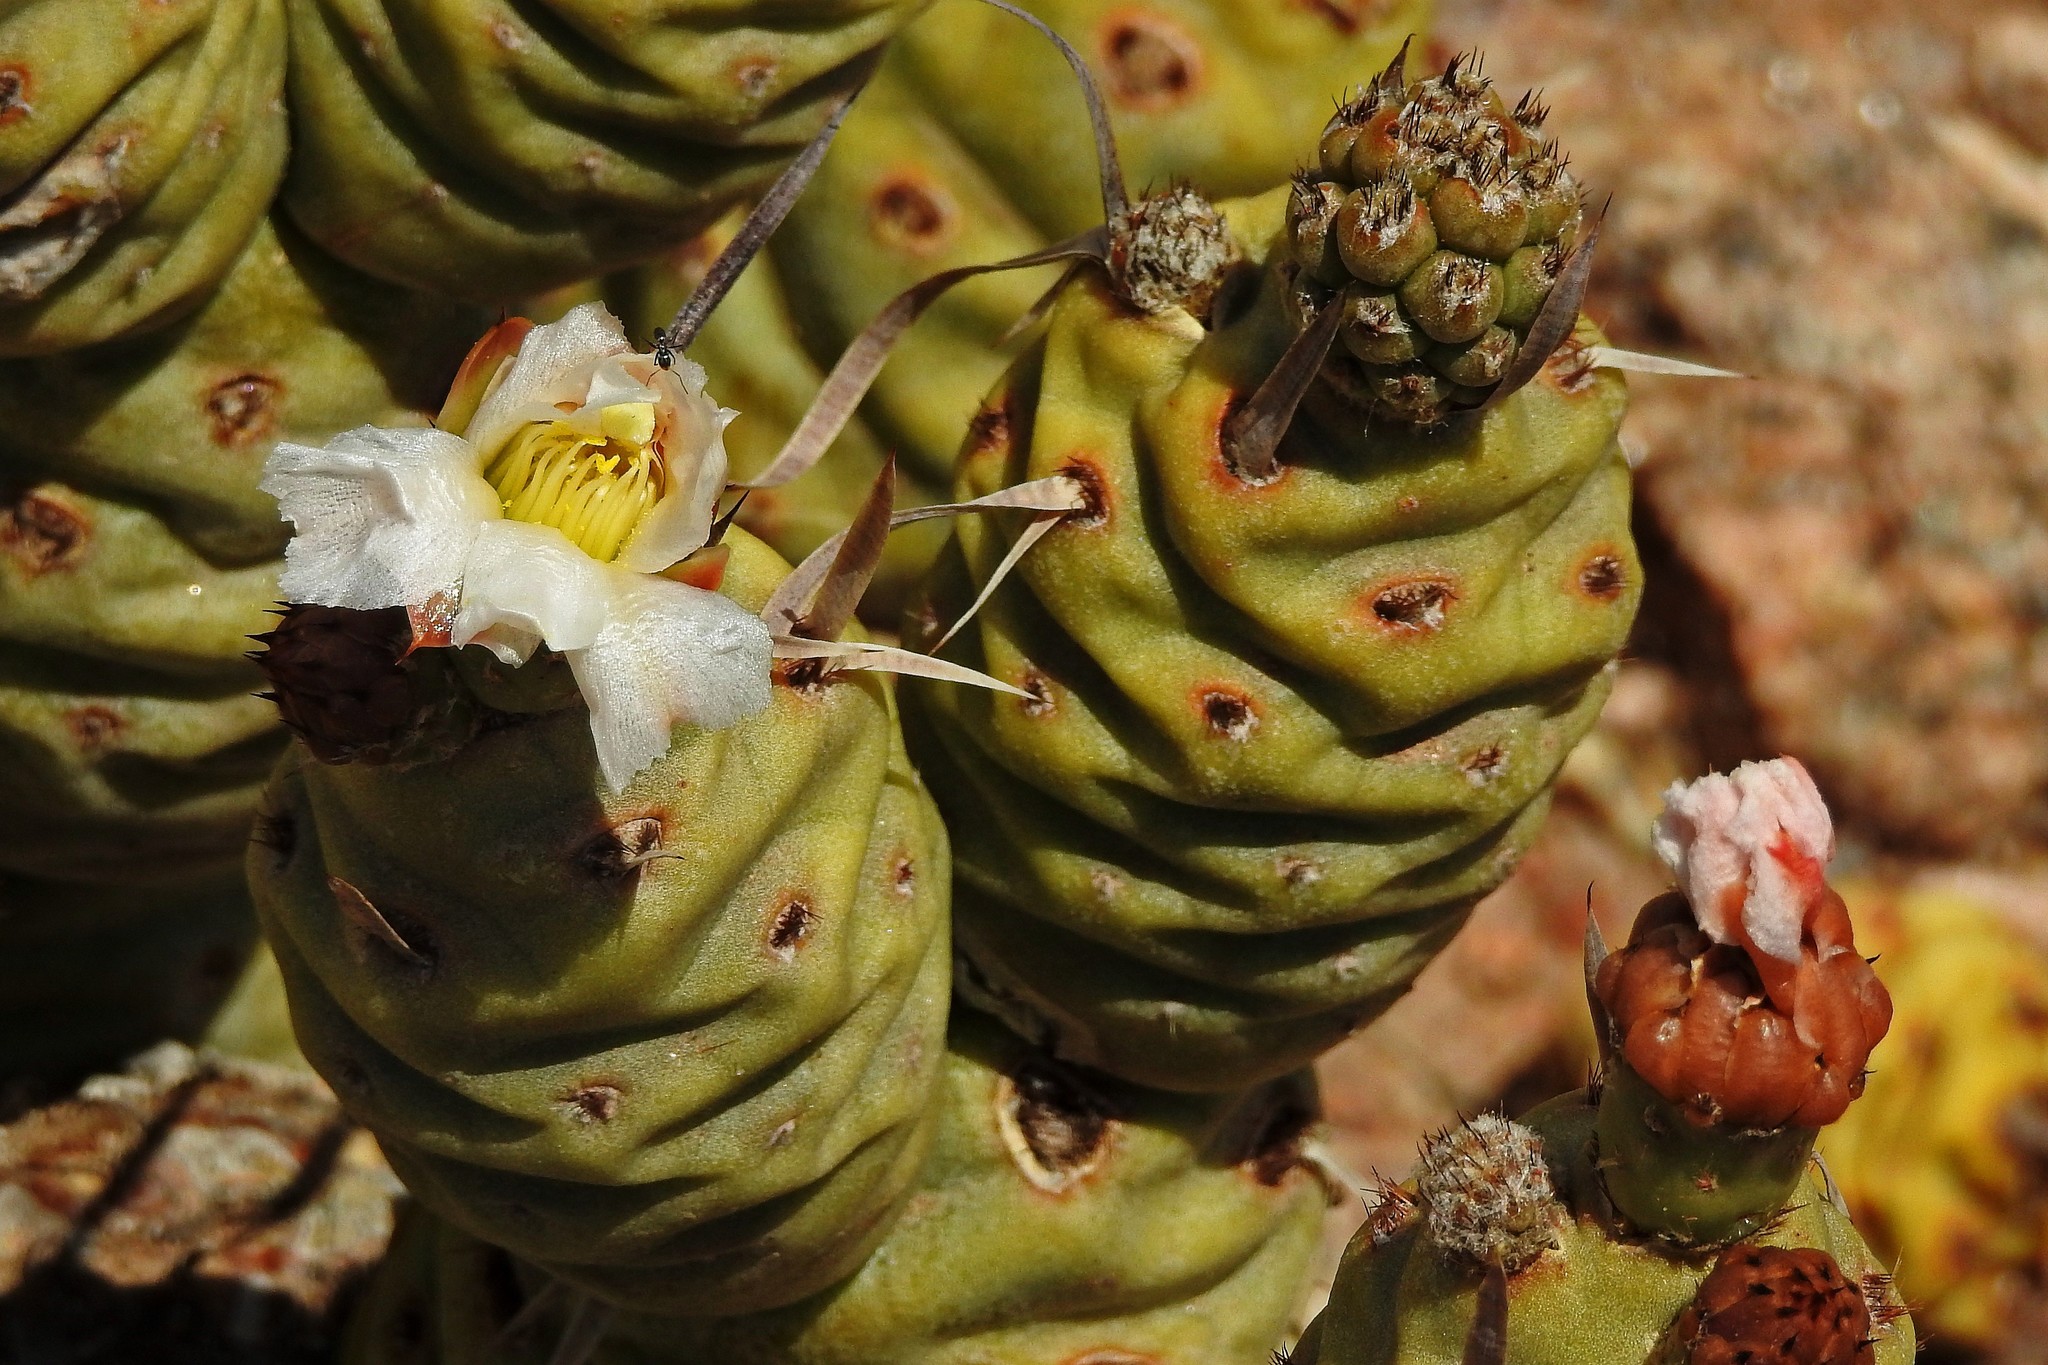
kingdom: Plantae
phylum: Tracheophyta
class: Magnoliopsida
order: Caryophyllales
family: Cactaceae
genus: Tephrocactus
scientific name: Tephrocactus articulatus
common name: Paper cactus
